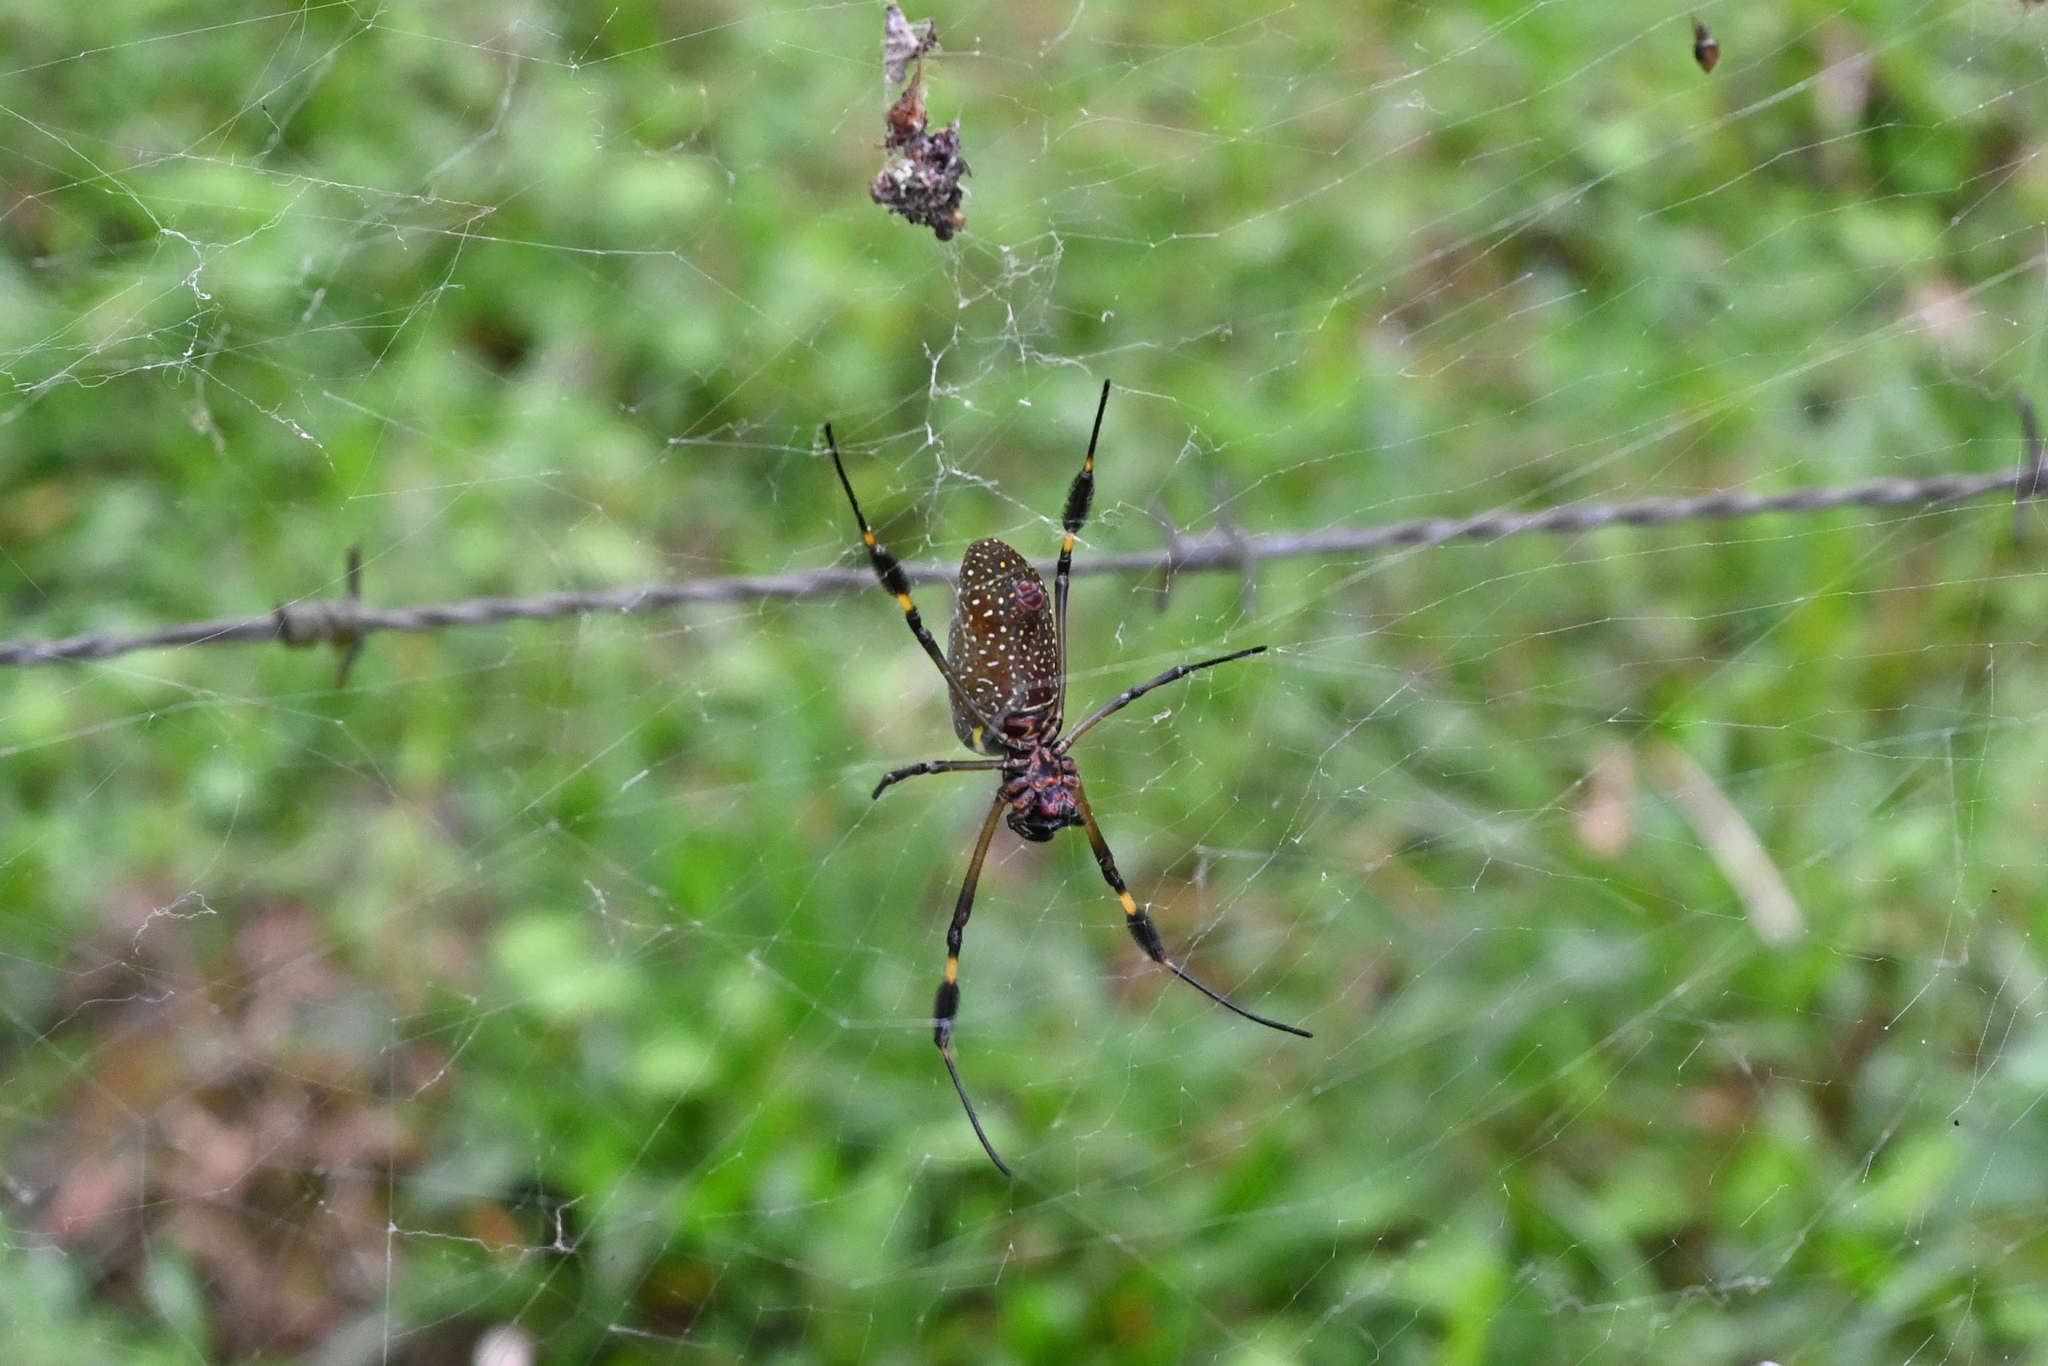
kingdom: Animalia
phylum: Arthropoda
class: Arachnida
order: Araneae
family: Araneidae
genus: Trichonephila
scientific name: Trichonephila clavipes
